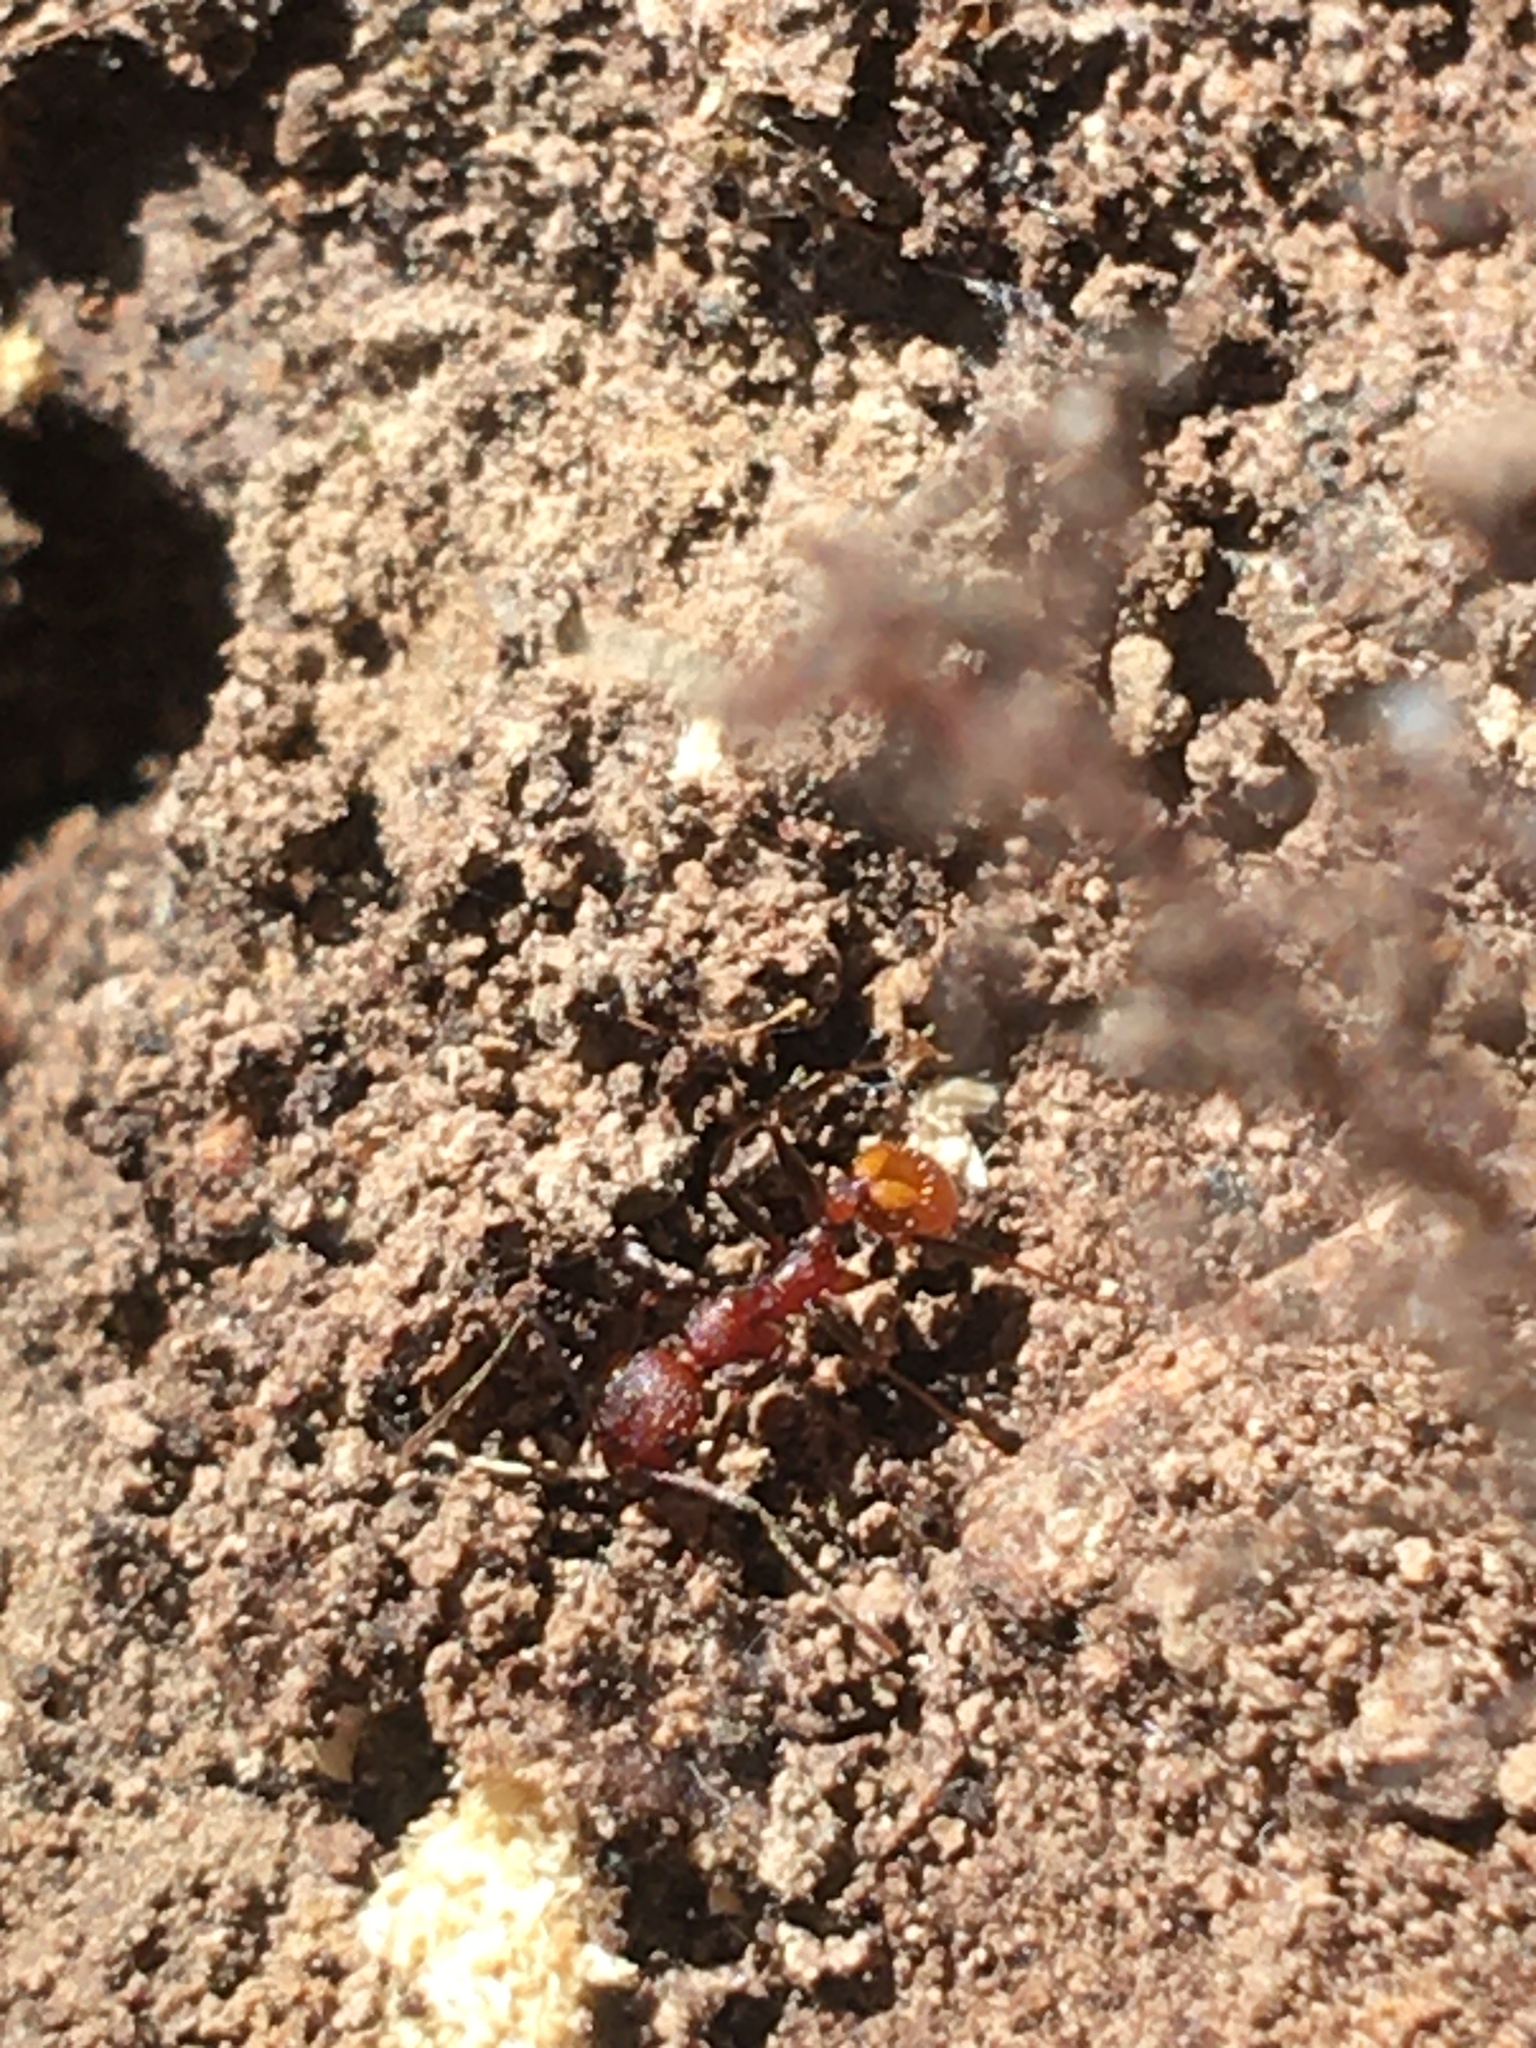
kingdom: Animalia
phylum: Arthropoda
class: Insecta
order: Hymenoptera
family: Formicidae
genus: Aphaenogaster
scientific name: Aphaenogaster lamellidens
